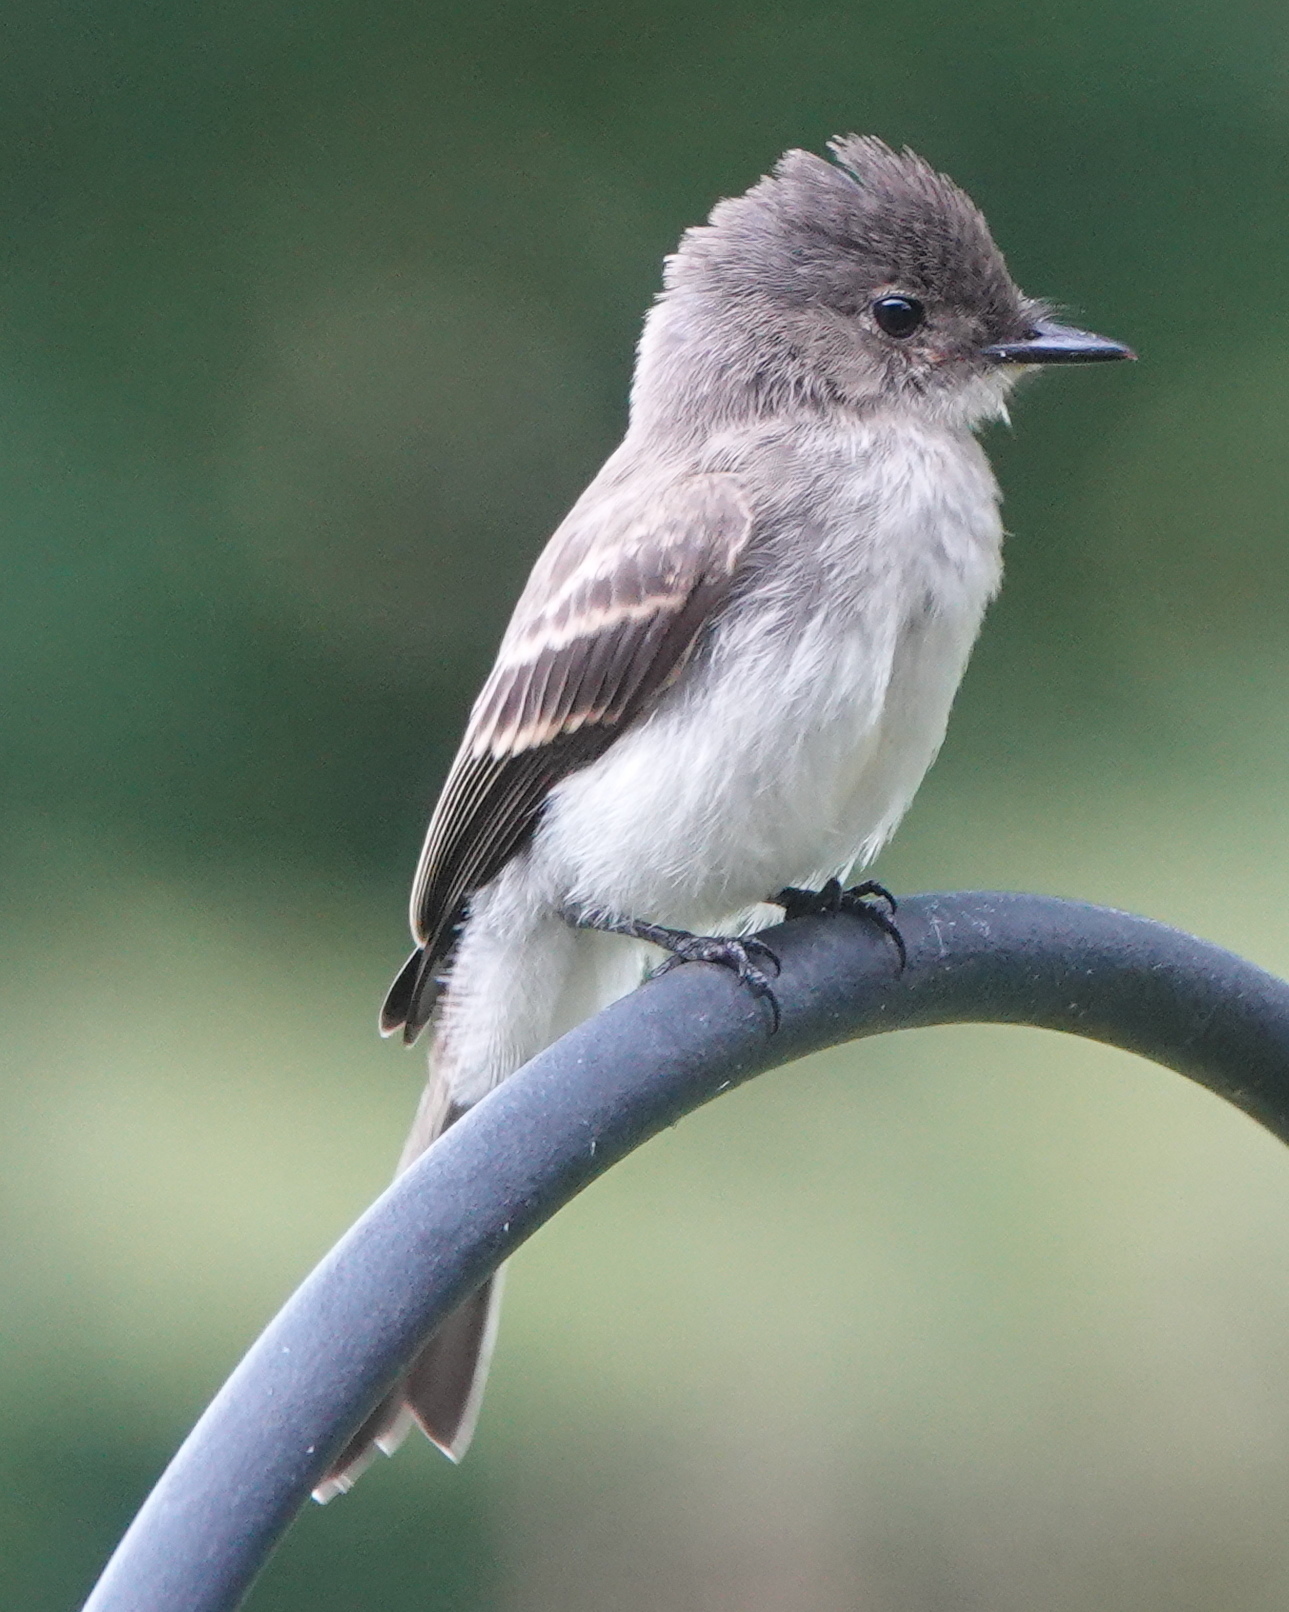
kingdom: Animalia
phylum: Chordata
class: Aves
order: Passeriformes
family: Tyrannidae
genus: Sayornis
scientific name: Sayornis phoebe
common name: Eastern phoebe
